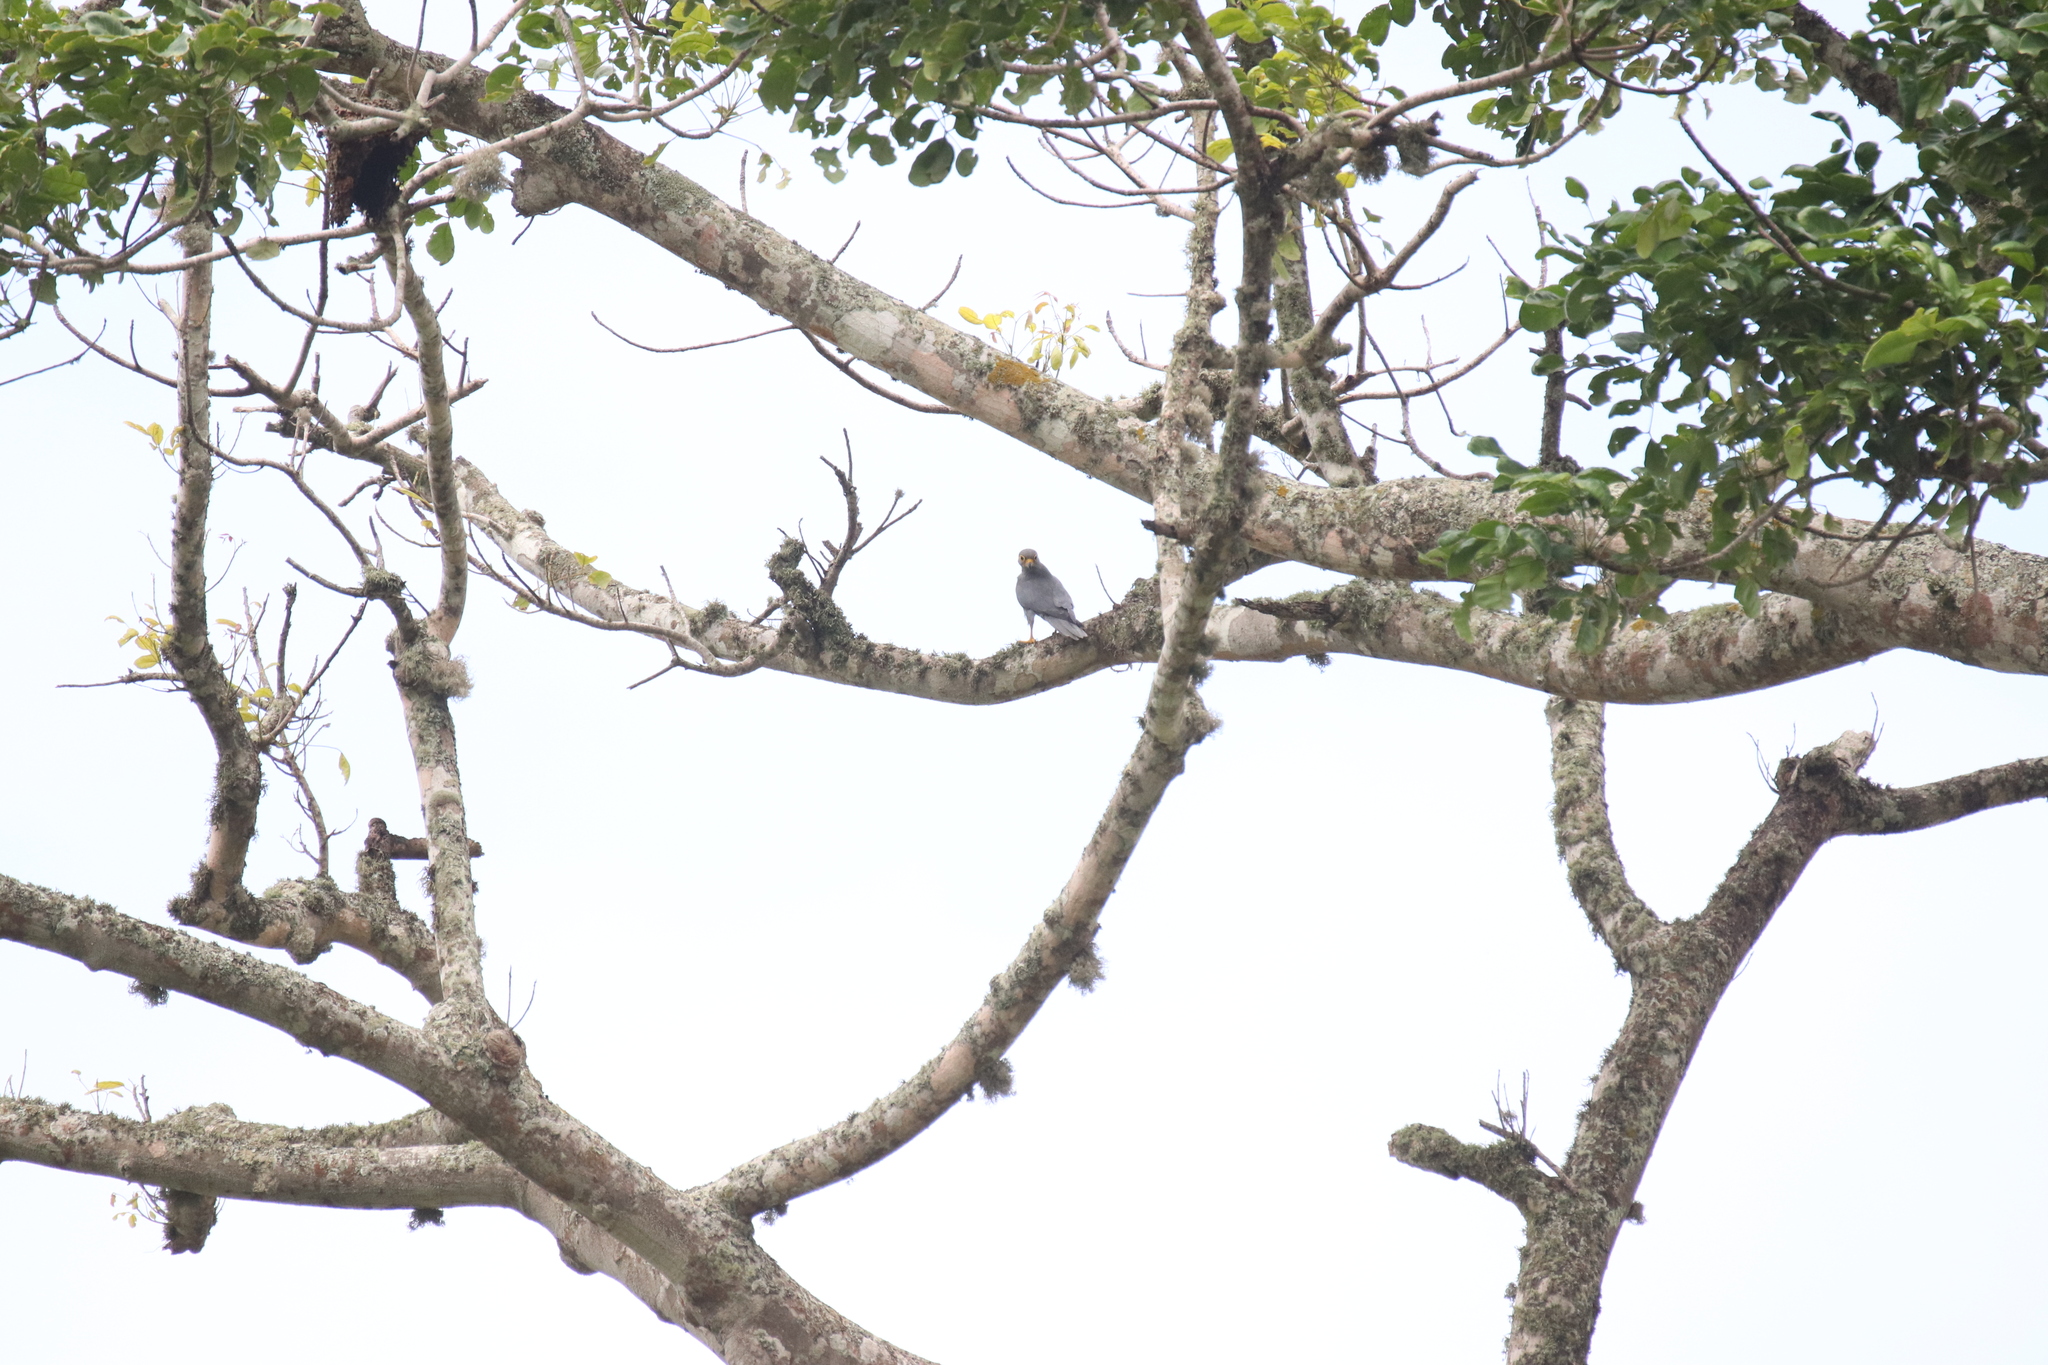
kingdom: Animalia
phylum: Chordata
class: Aves
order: Falconiformes
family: Falconidae
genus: Falco
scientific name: Falco ardosiaceus
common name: Grey kestrel
